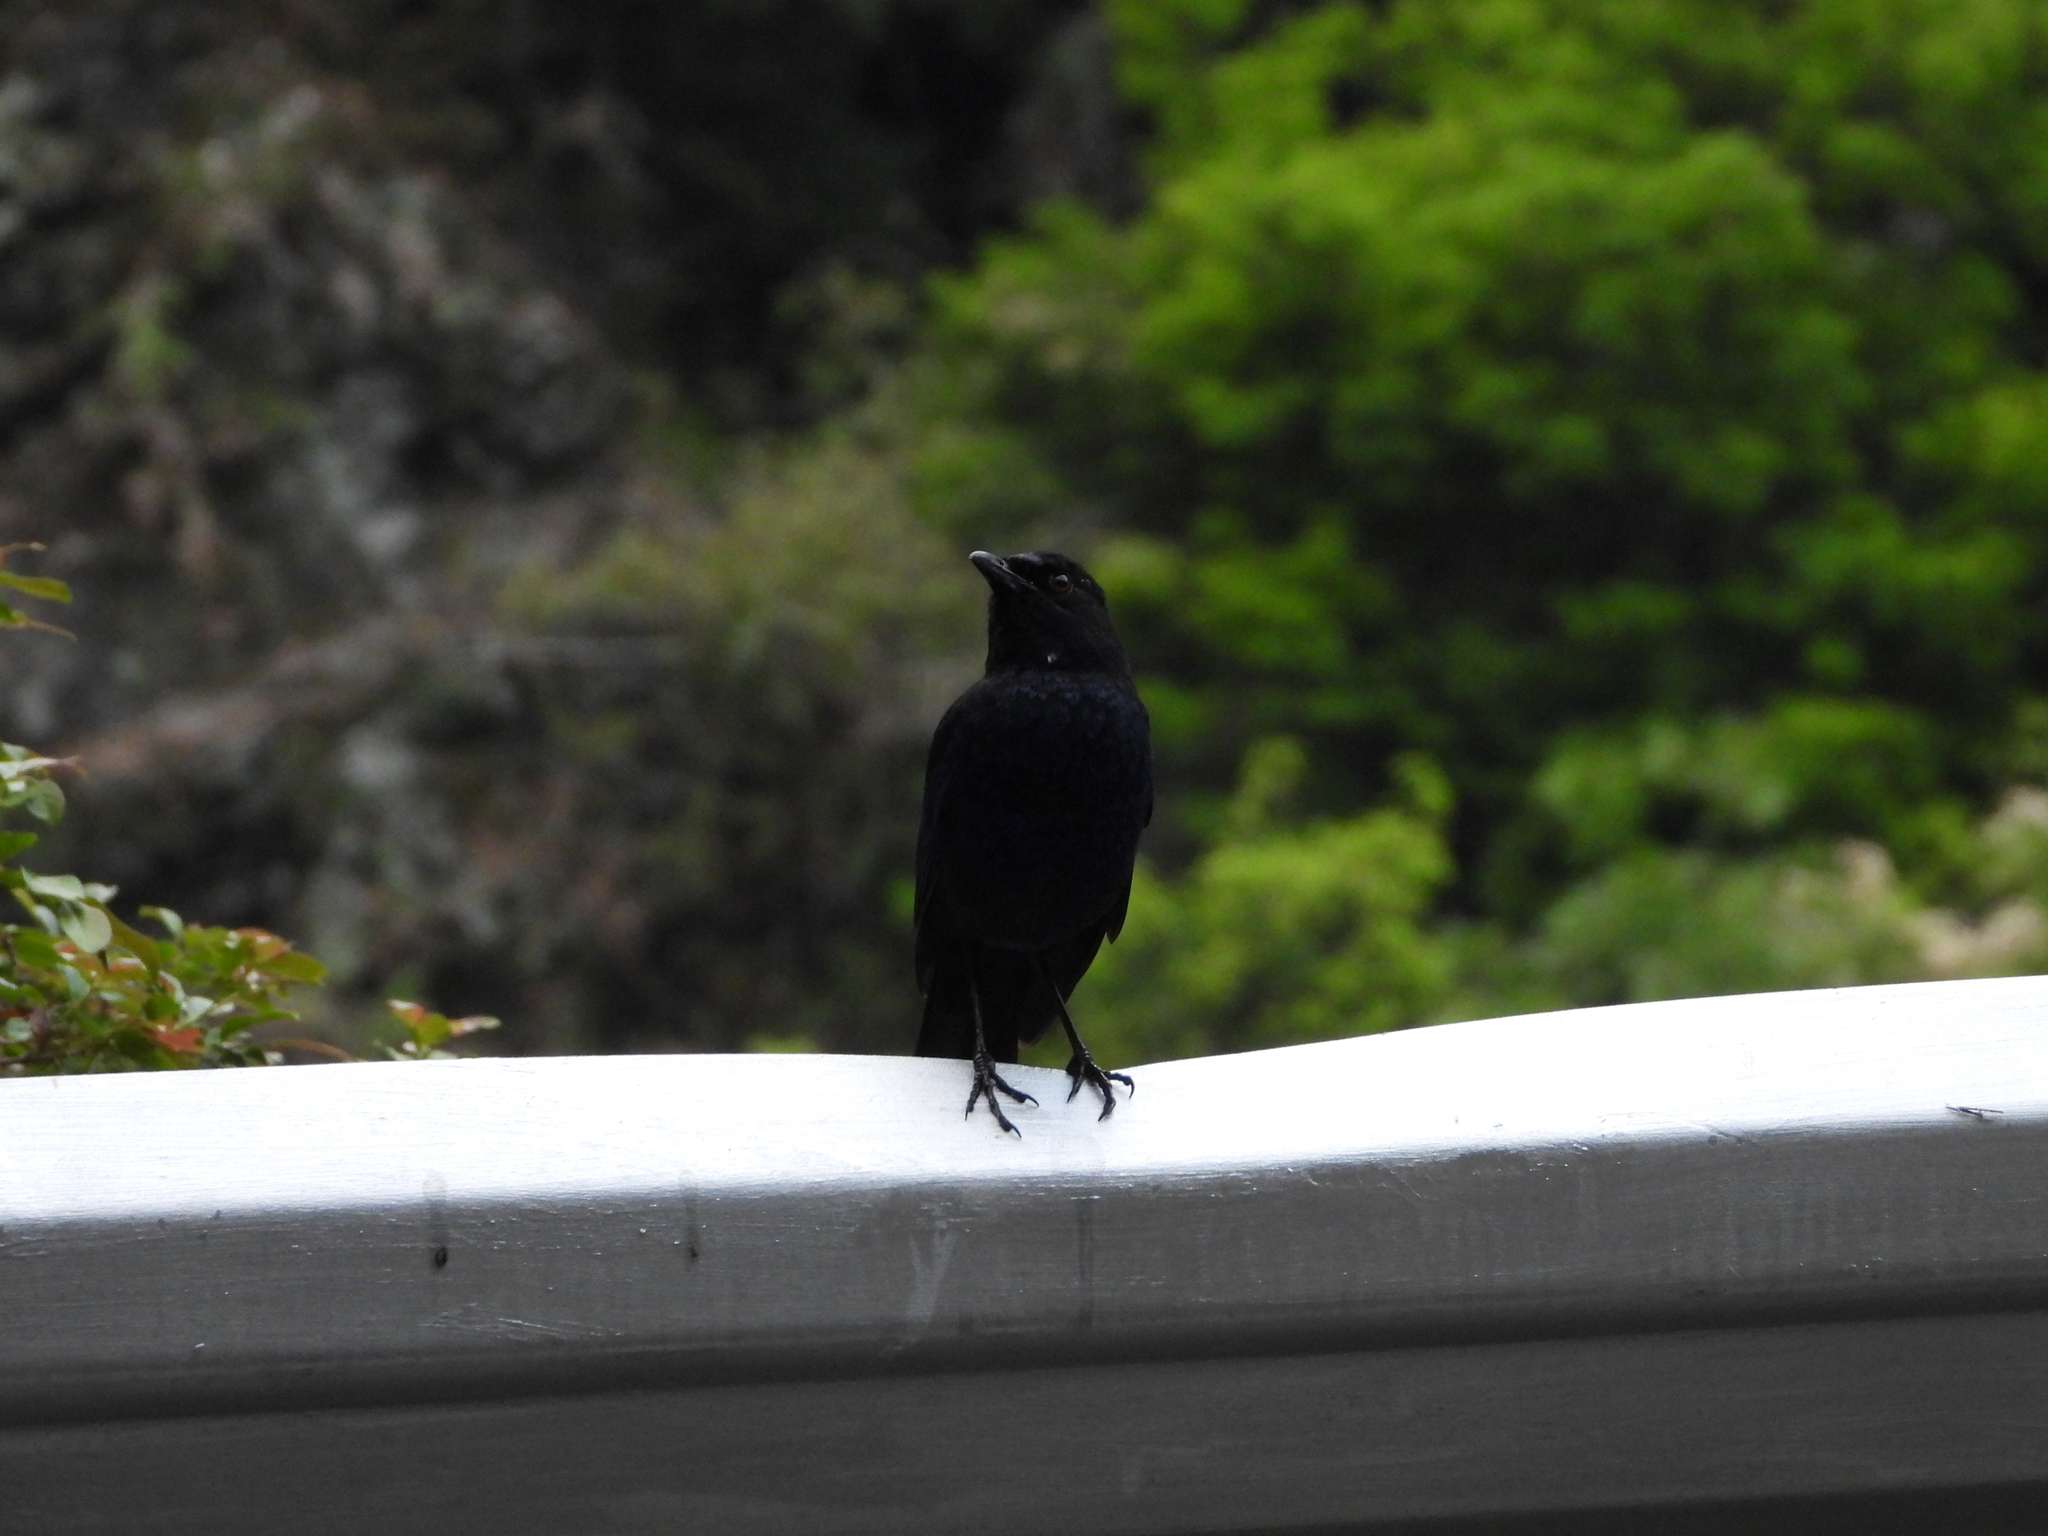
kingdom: Animalia
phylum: Chordata
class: Aves
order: Passeriformes
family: Muscicapidae
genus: Myophonus
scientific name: Myophonus insularis
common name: Taiwan whistling-thrush
